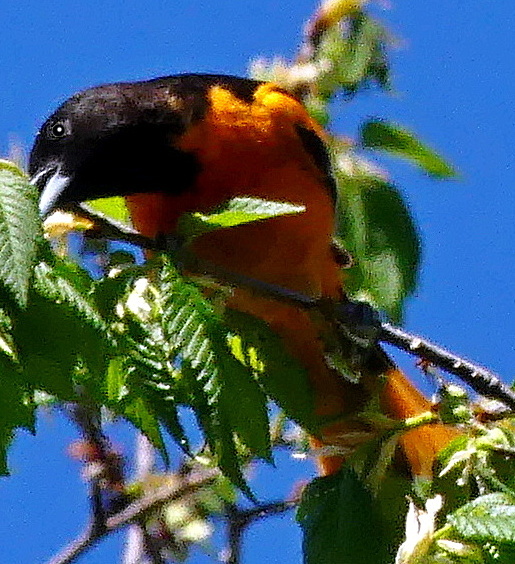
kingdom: Animalia
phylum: Chordata
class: Aves
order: Passeriformes
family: Icteridae
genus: Icterus
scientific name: Icterus galbula
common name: Baltimore oriole
